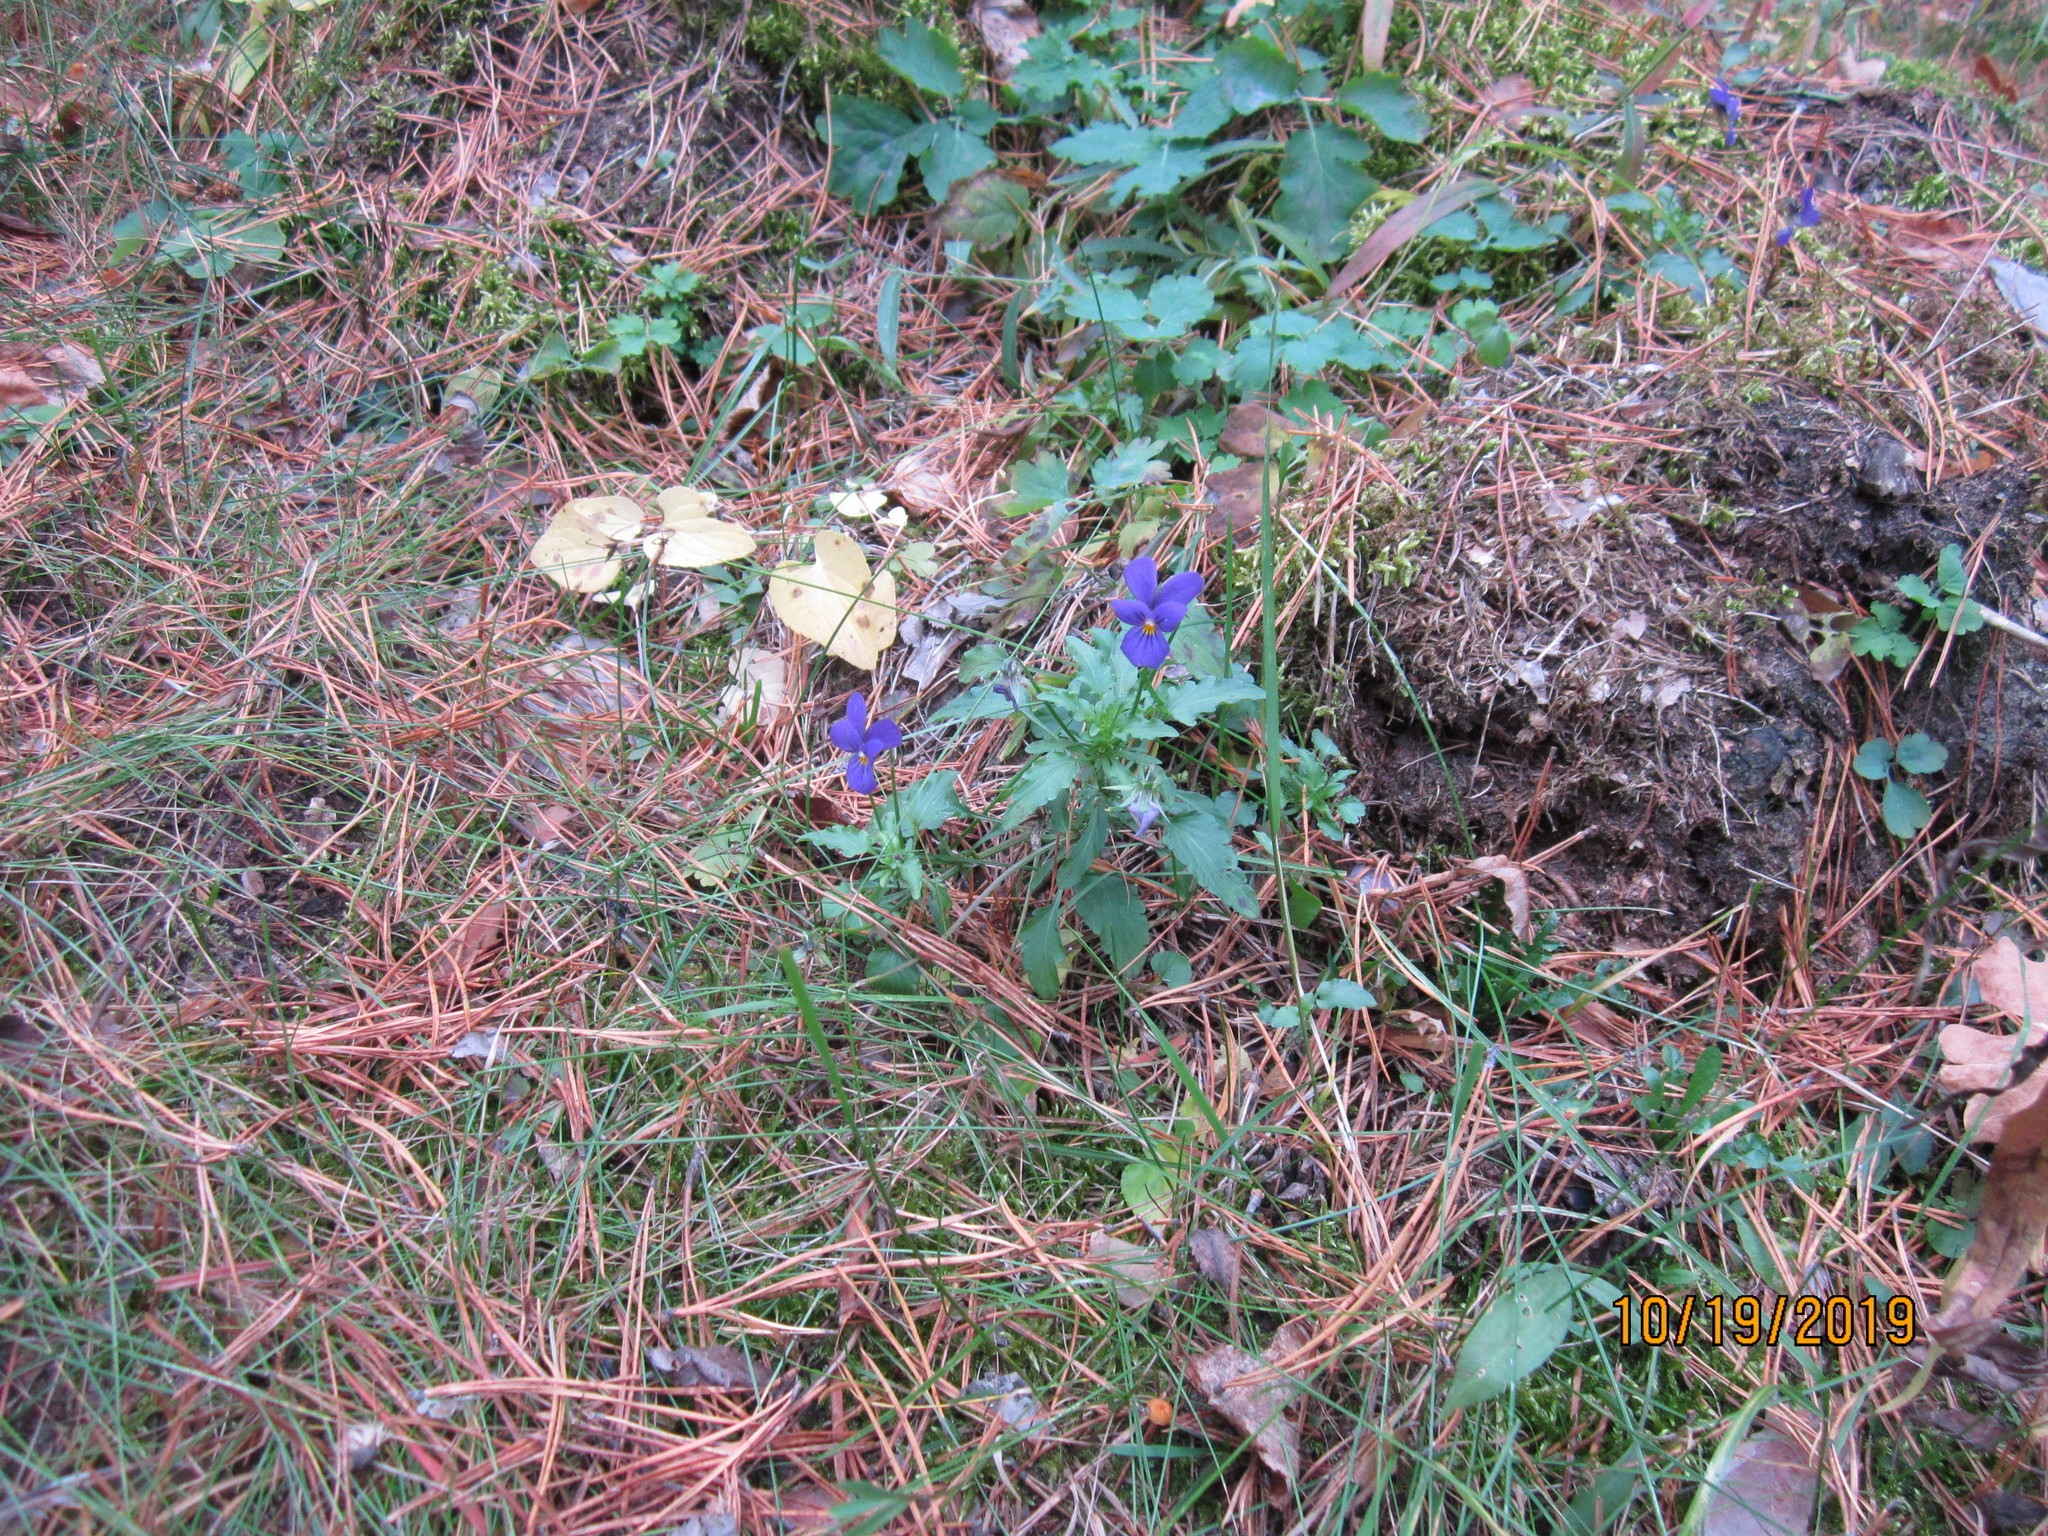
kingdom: Plantae
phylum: Tracheophyta
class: Magnoliopsida
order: Malpighiales
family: Violaceae
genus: Viola
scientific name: Viola tricolor
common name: Pansy
